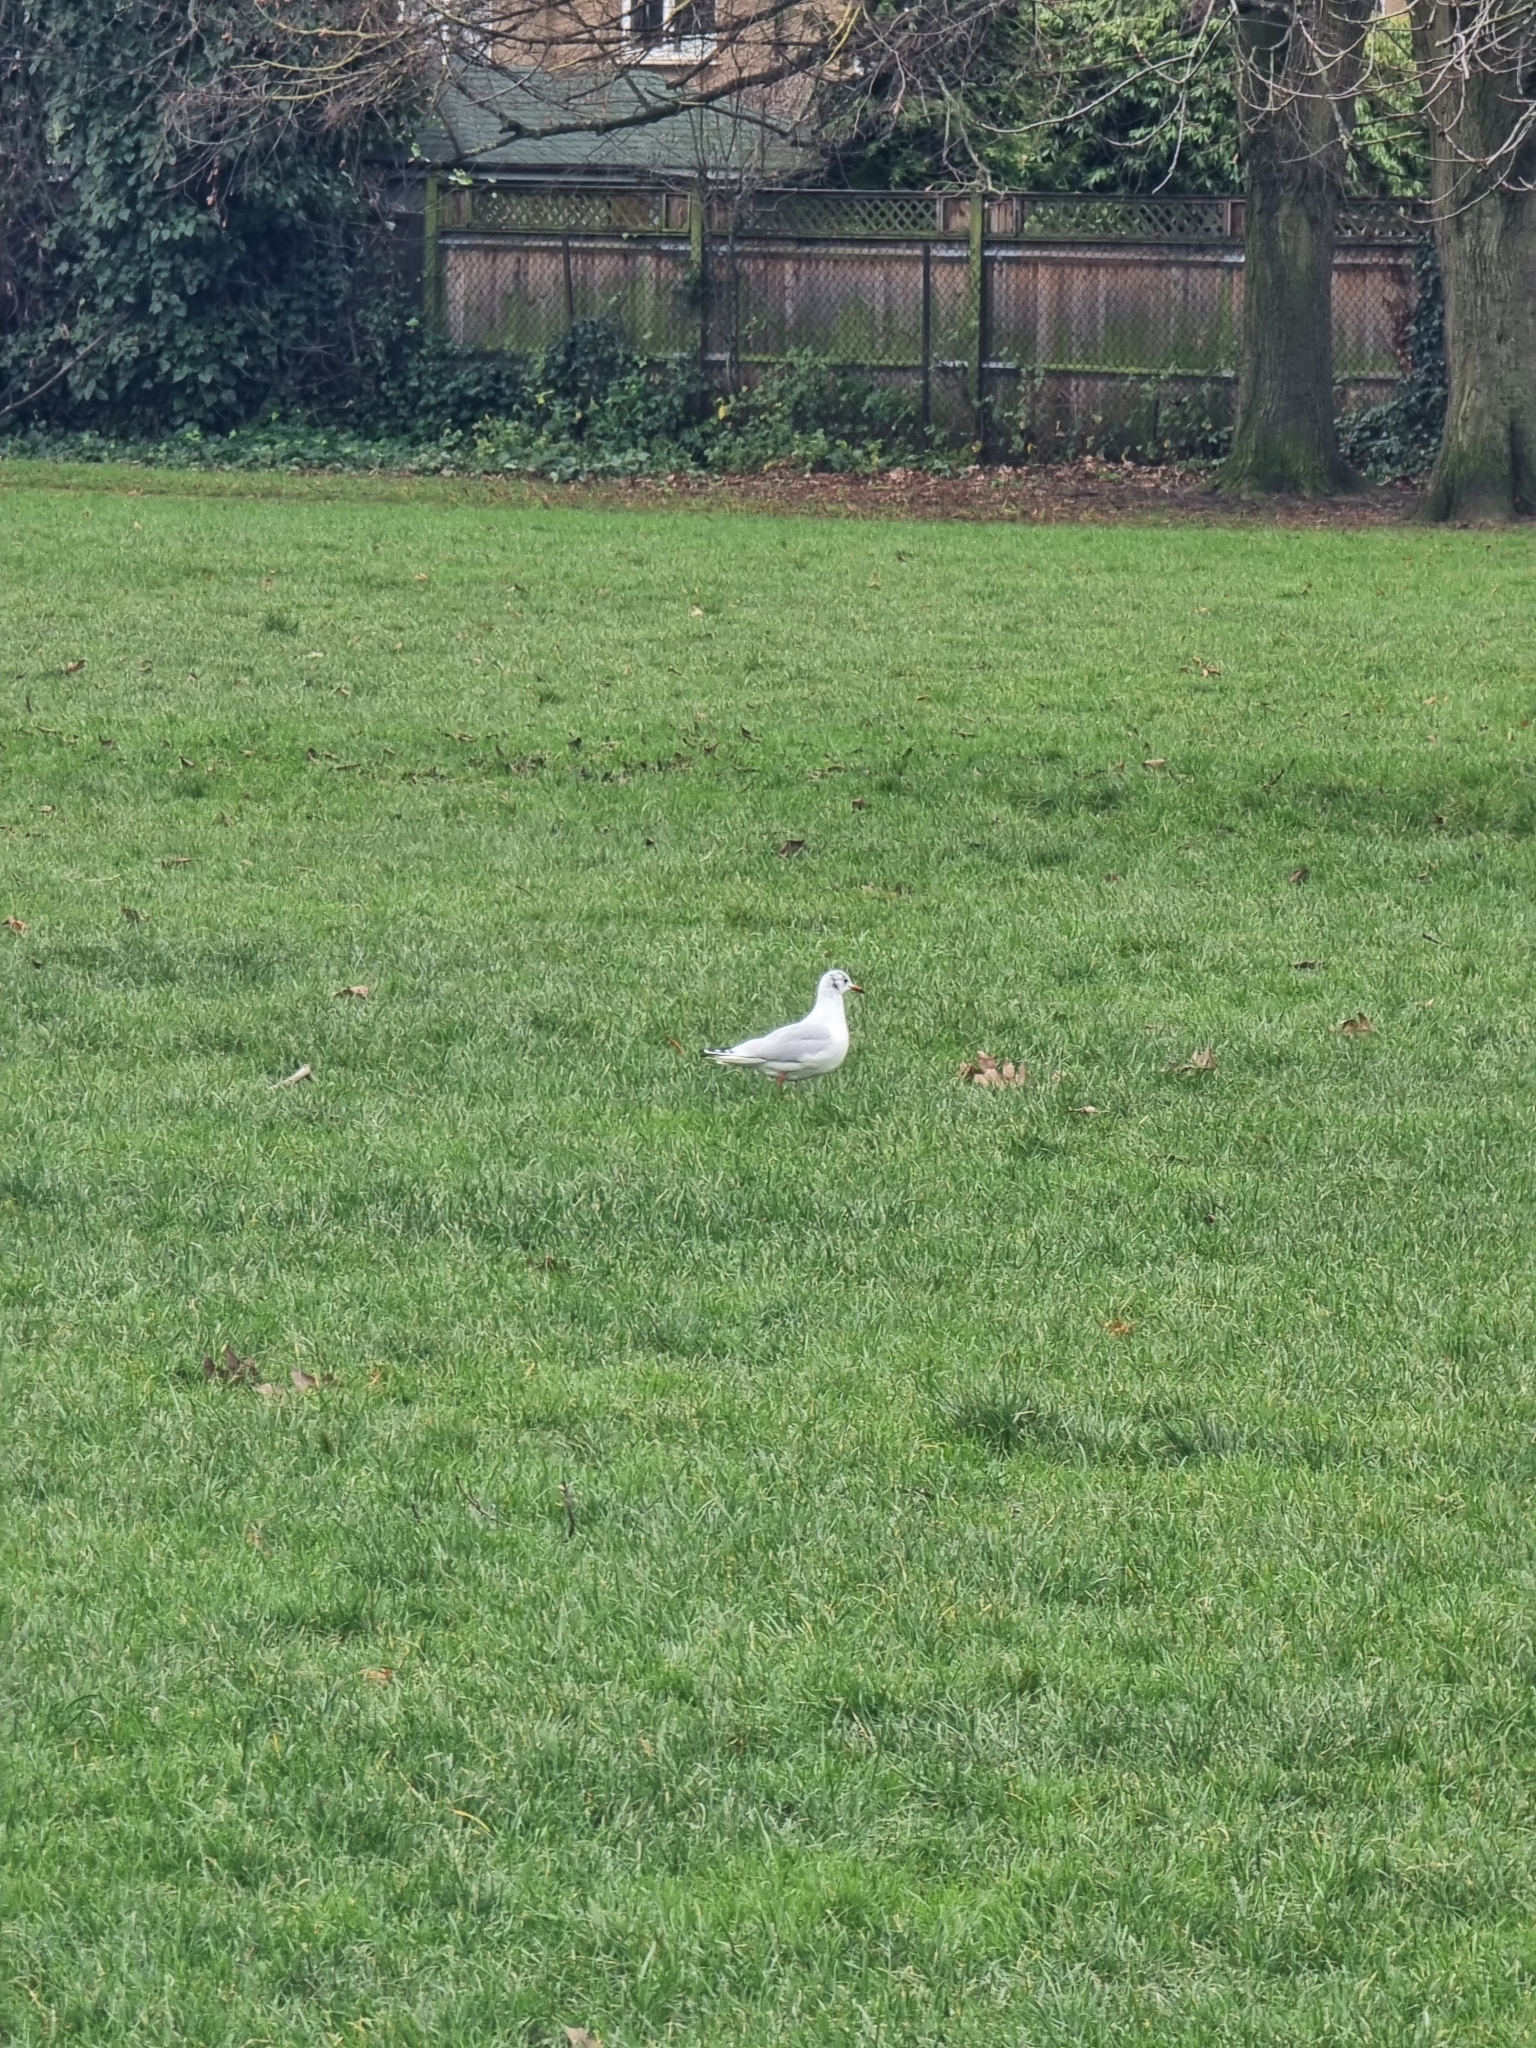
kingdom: Animalia
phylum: Chordata
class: Aves
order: Charadriiformes
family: Laridae
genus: Chroicocephalus
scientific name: Chroicocephalus ridibundus
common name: Black-headed gull
